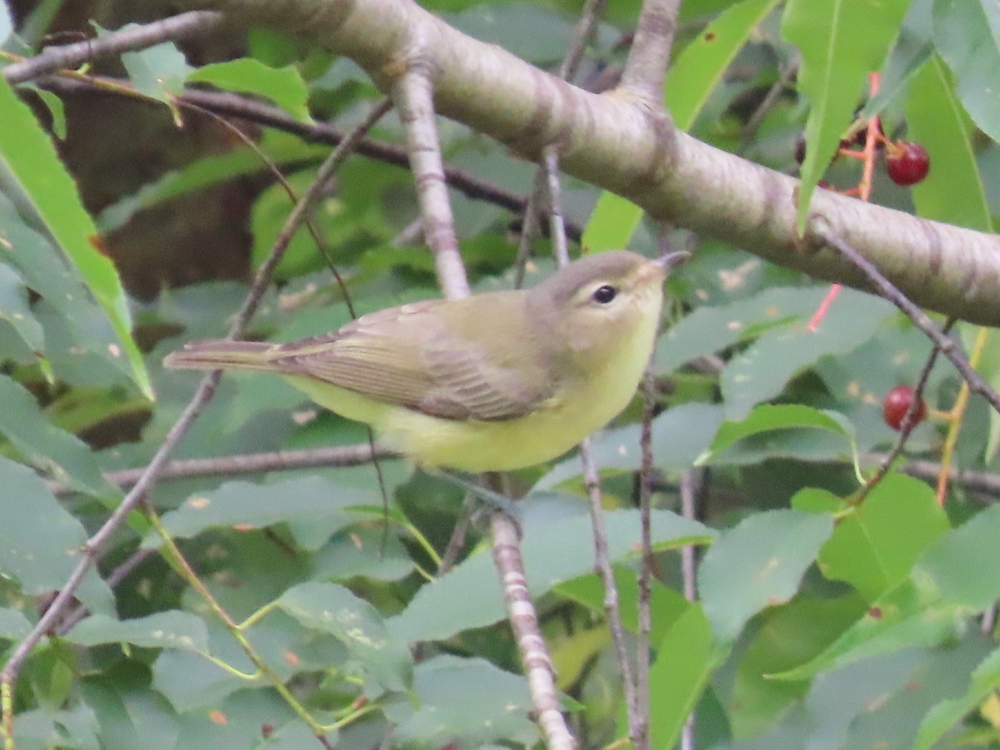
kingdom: Animalia
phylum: Chordata
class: Aves
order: Passeriformes
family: Vireonidae
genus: Vireo
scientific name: Vireo gilvus
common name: Warbling vireo
